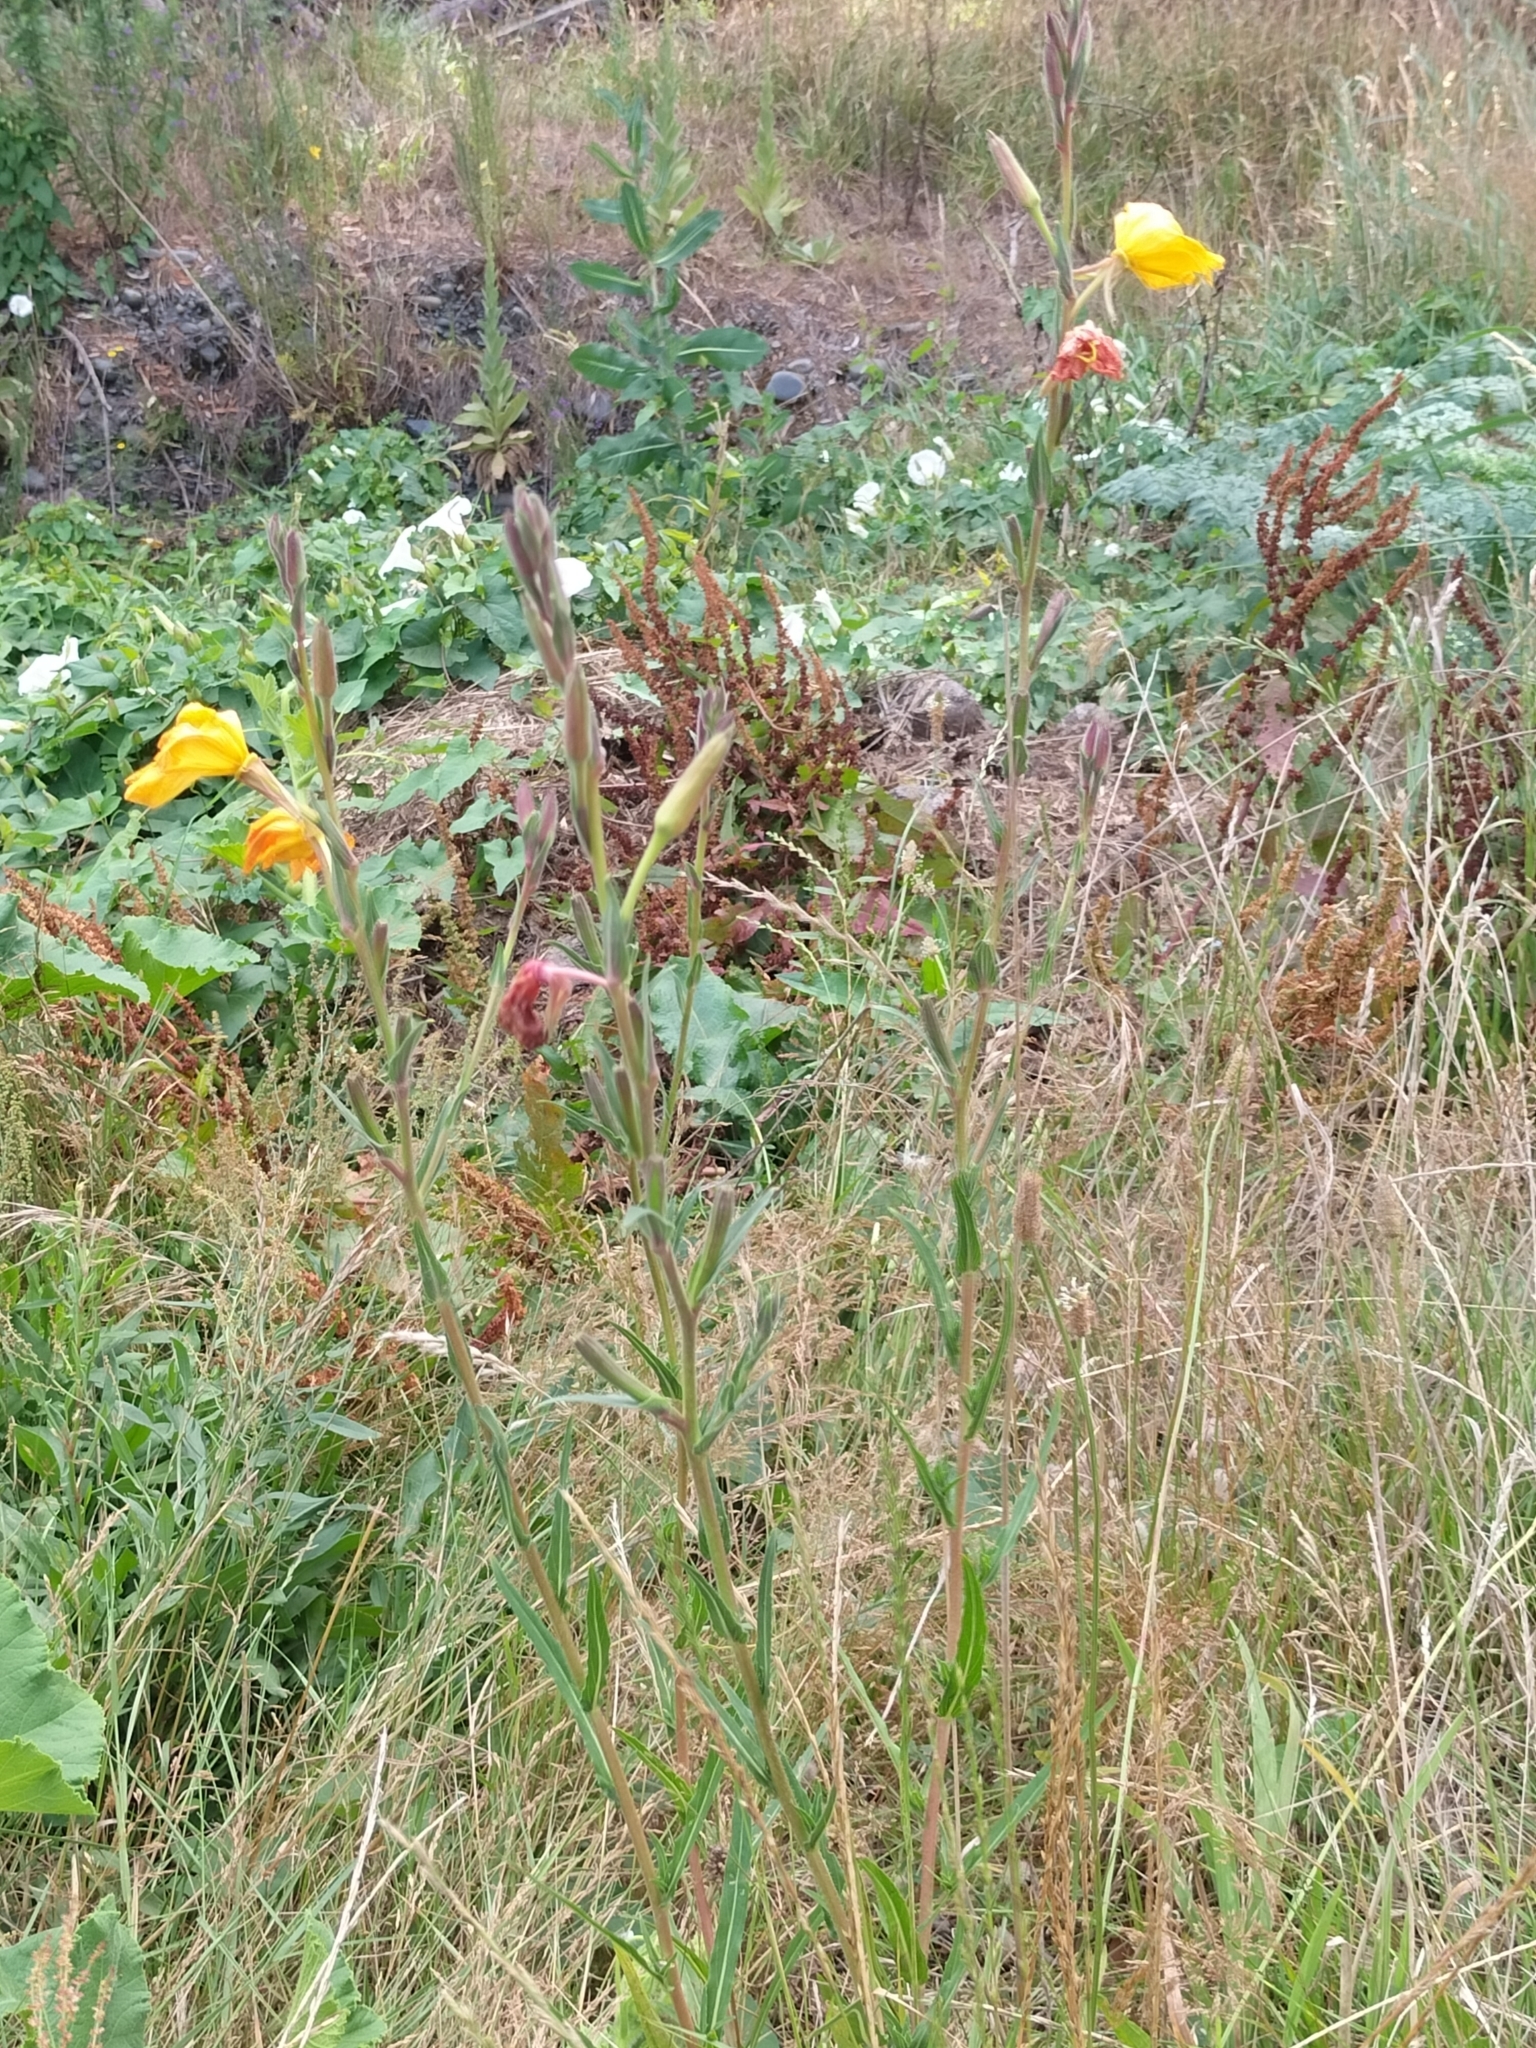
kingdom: Plantae
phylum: Tracheophyta
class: Magnoliopsida
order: Myrtales
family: Onagraceae
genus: Oenothera
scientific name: Oenothera biennis
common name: Common evening-primrose
